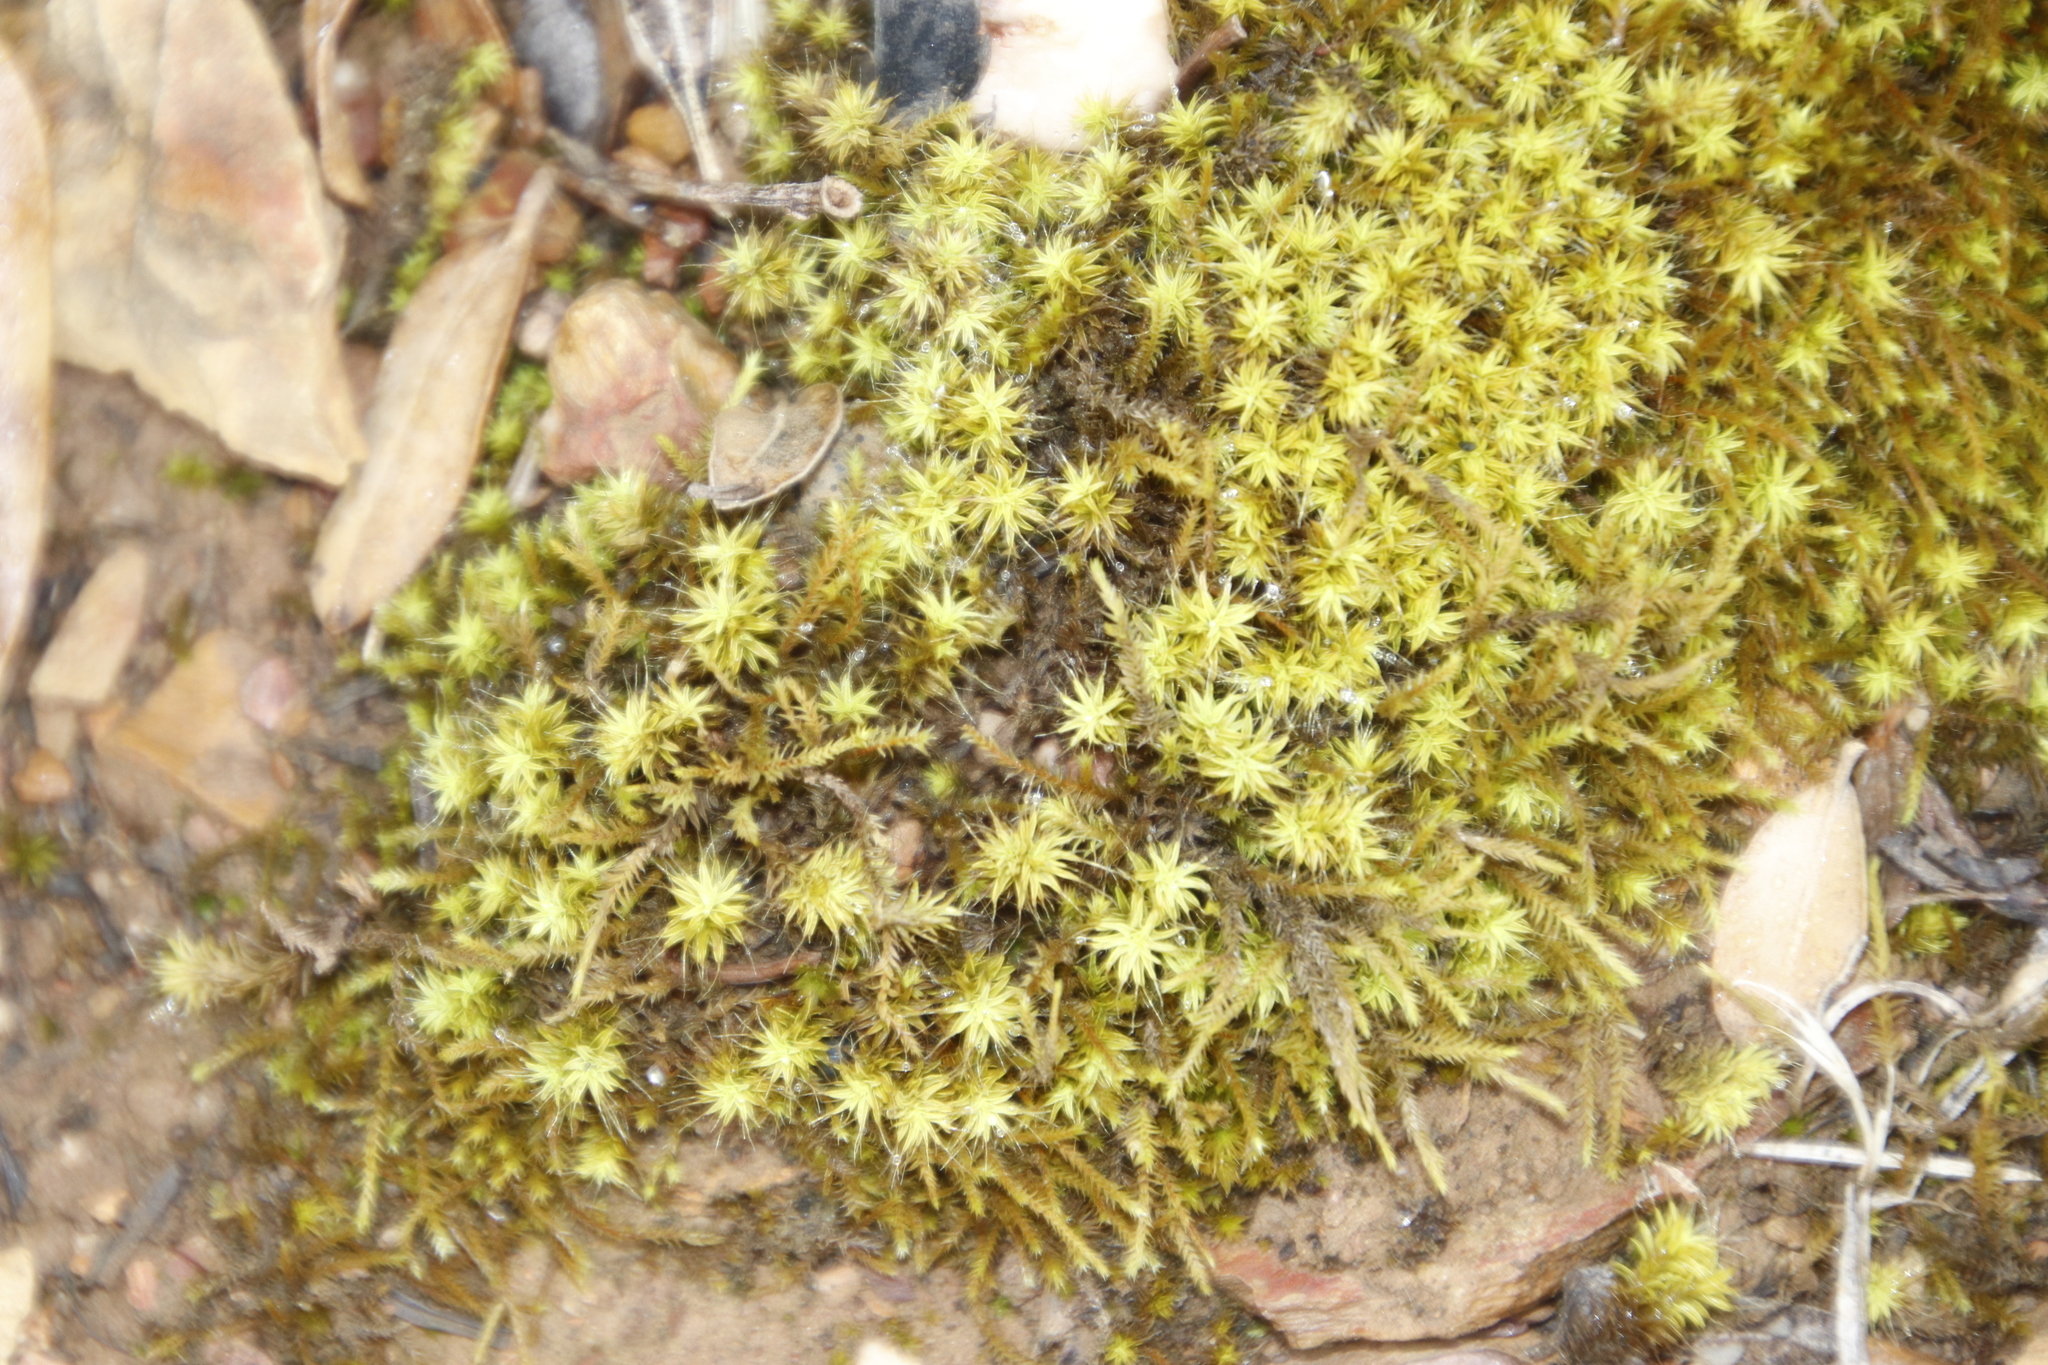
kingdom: Plantae
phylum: Bryophyta
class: Bryopsida
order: Pottiales
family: Pottiaceae
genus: Pseudocrossidium
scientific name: Pseudocrossidium crinitum
